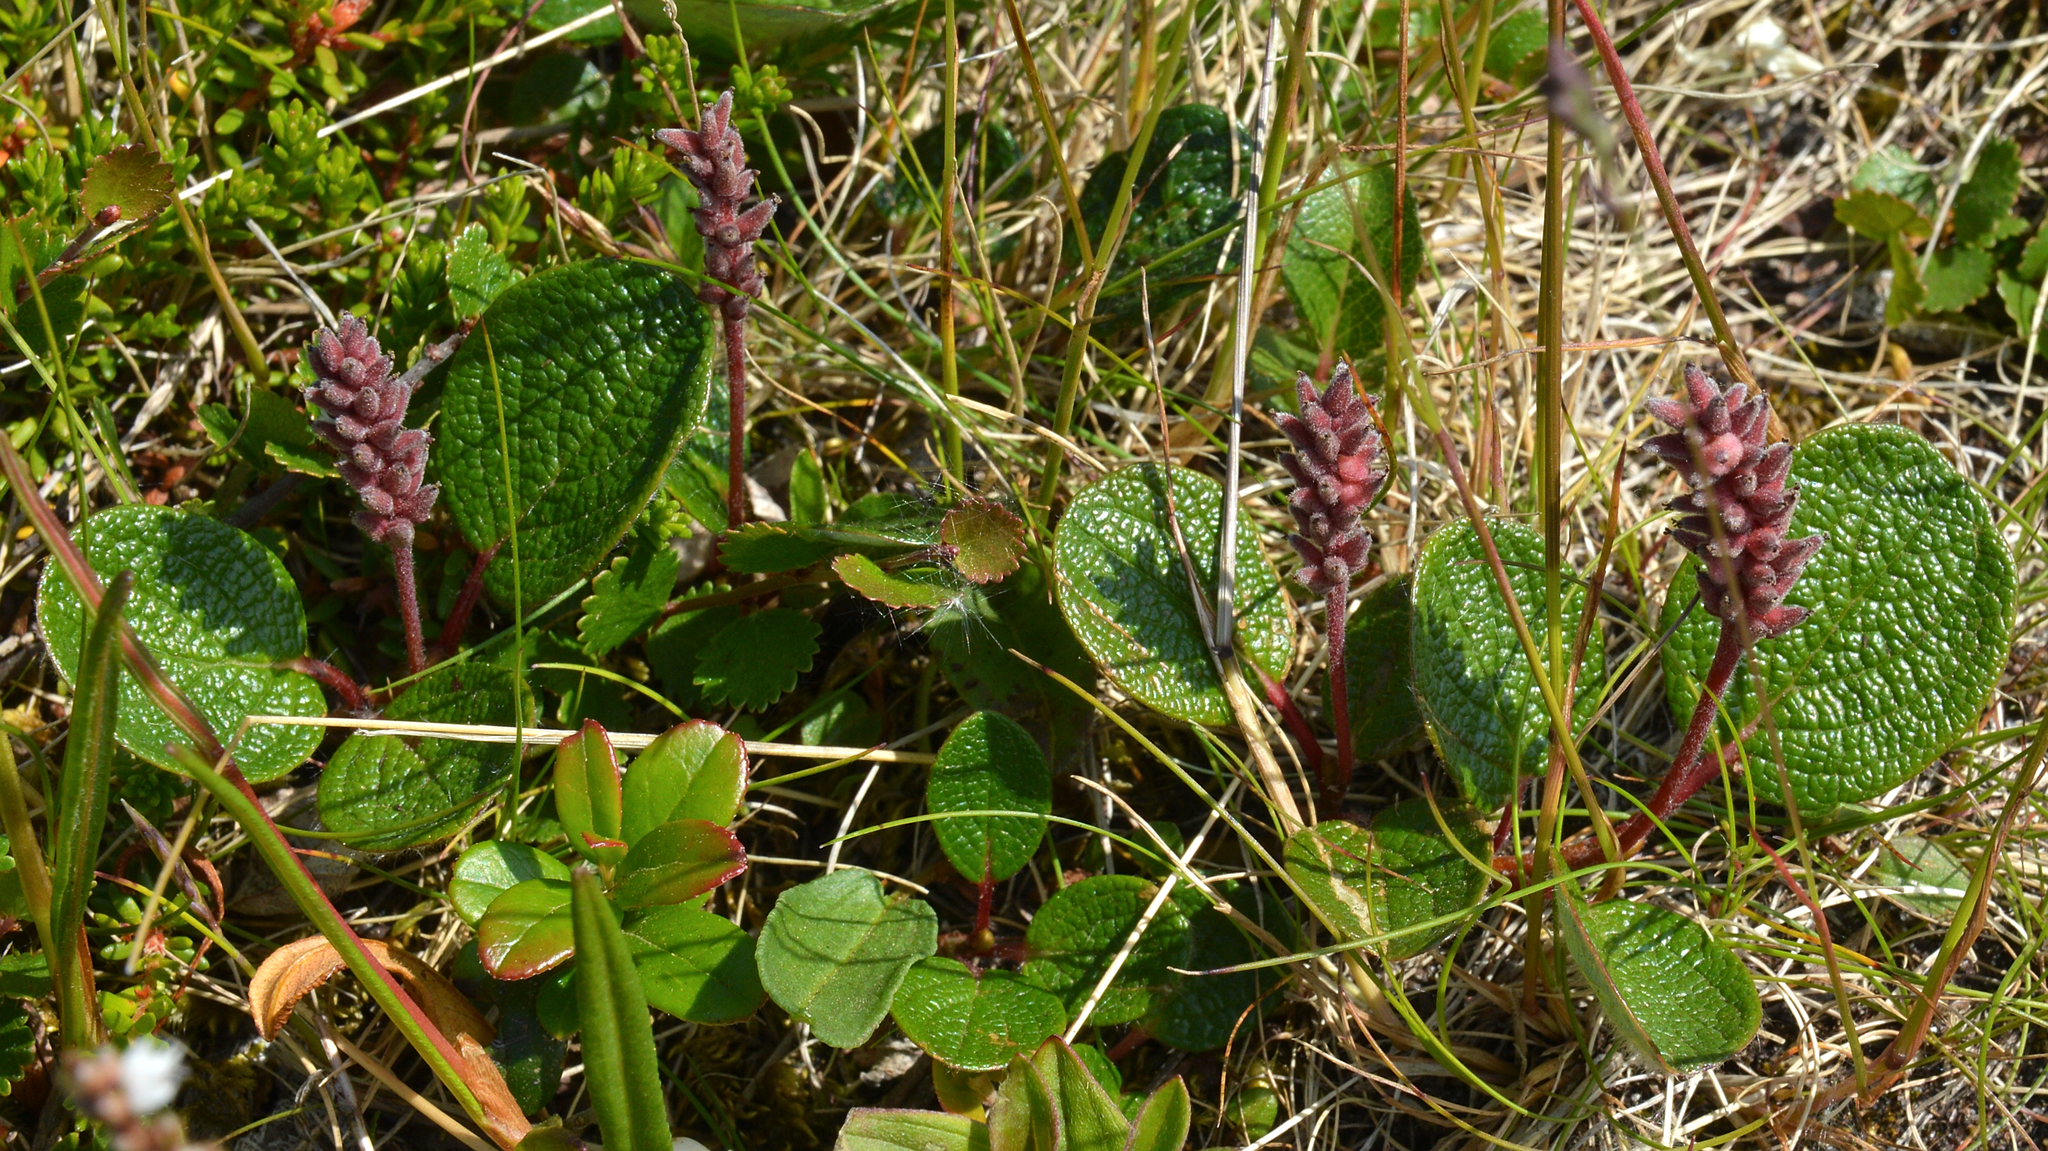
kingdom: Plantae
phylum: Tracheophyta
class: Magnoliopsida
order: Malpighiales
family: Salicaceae
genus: Salix
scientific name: Salix reticulata
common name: Net-leaved willow
